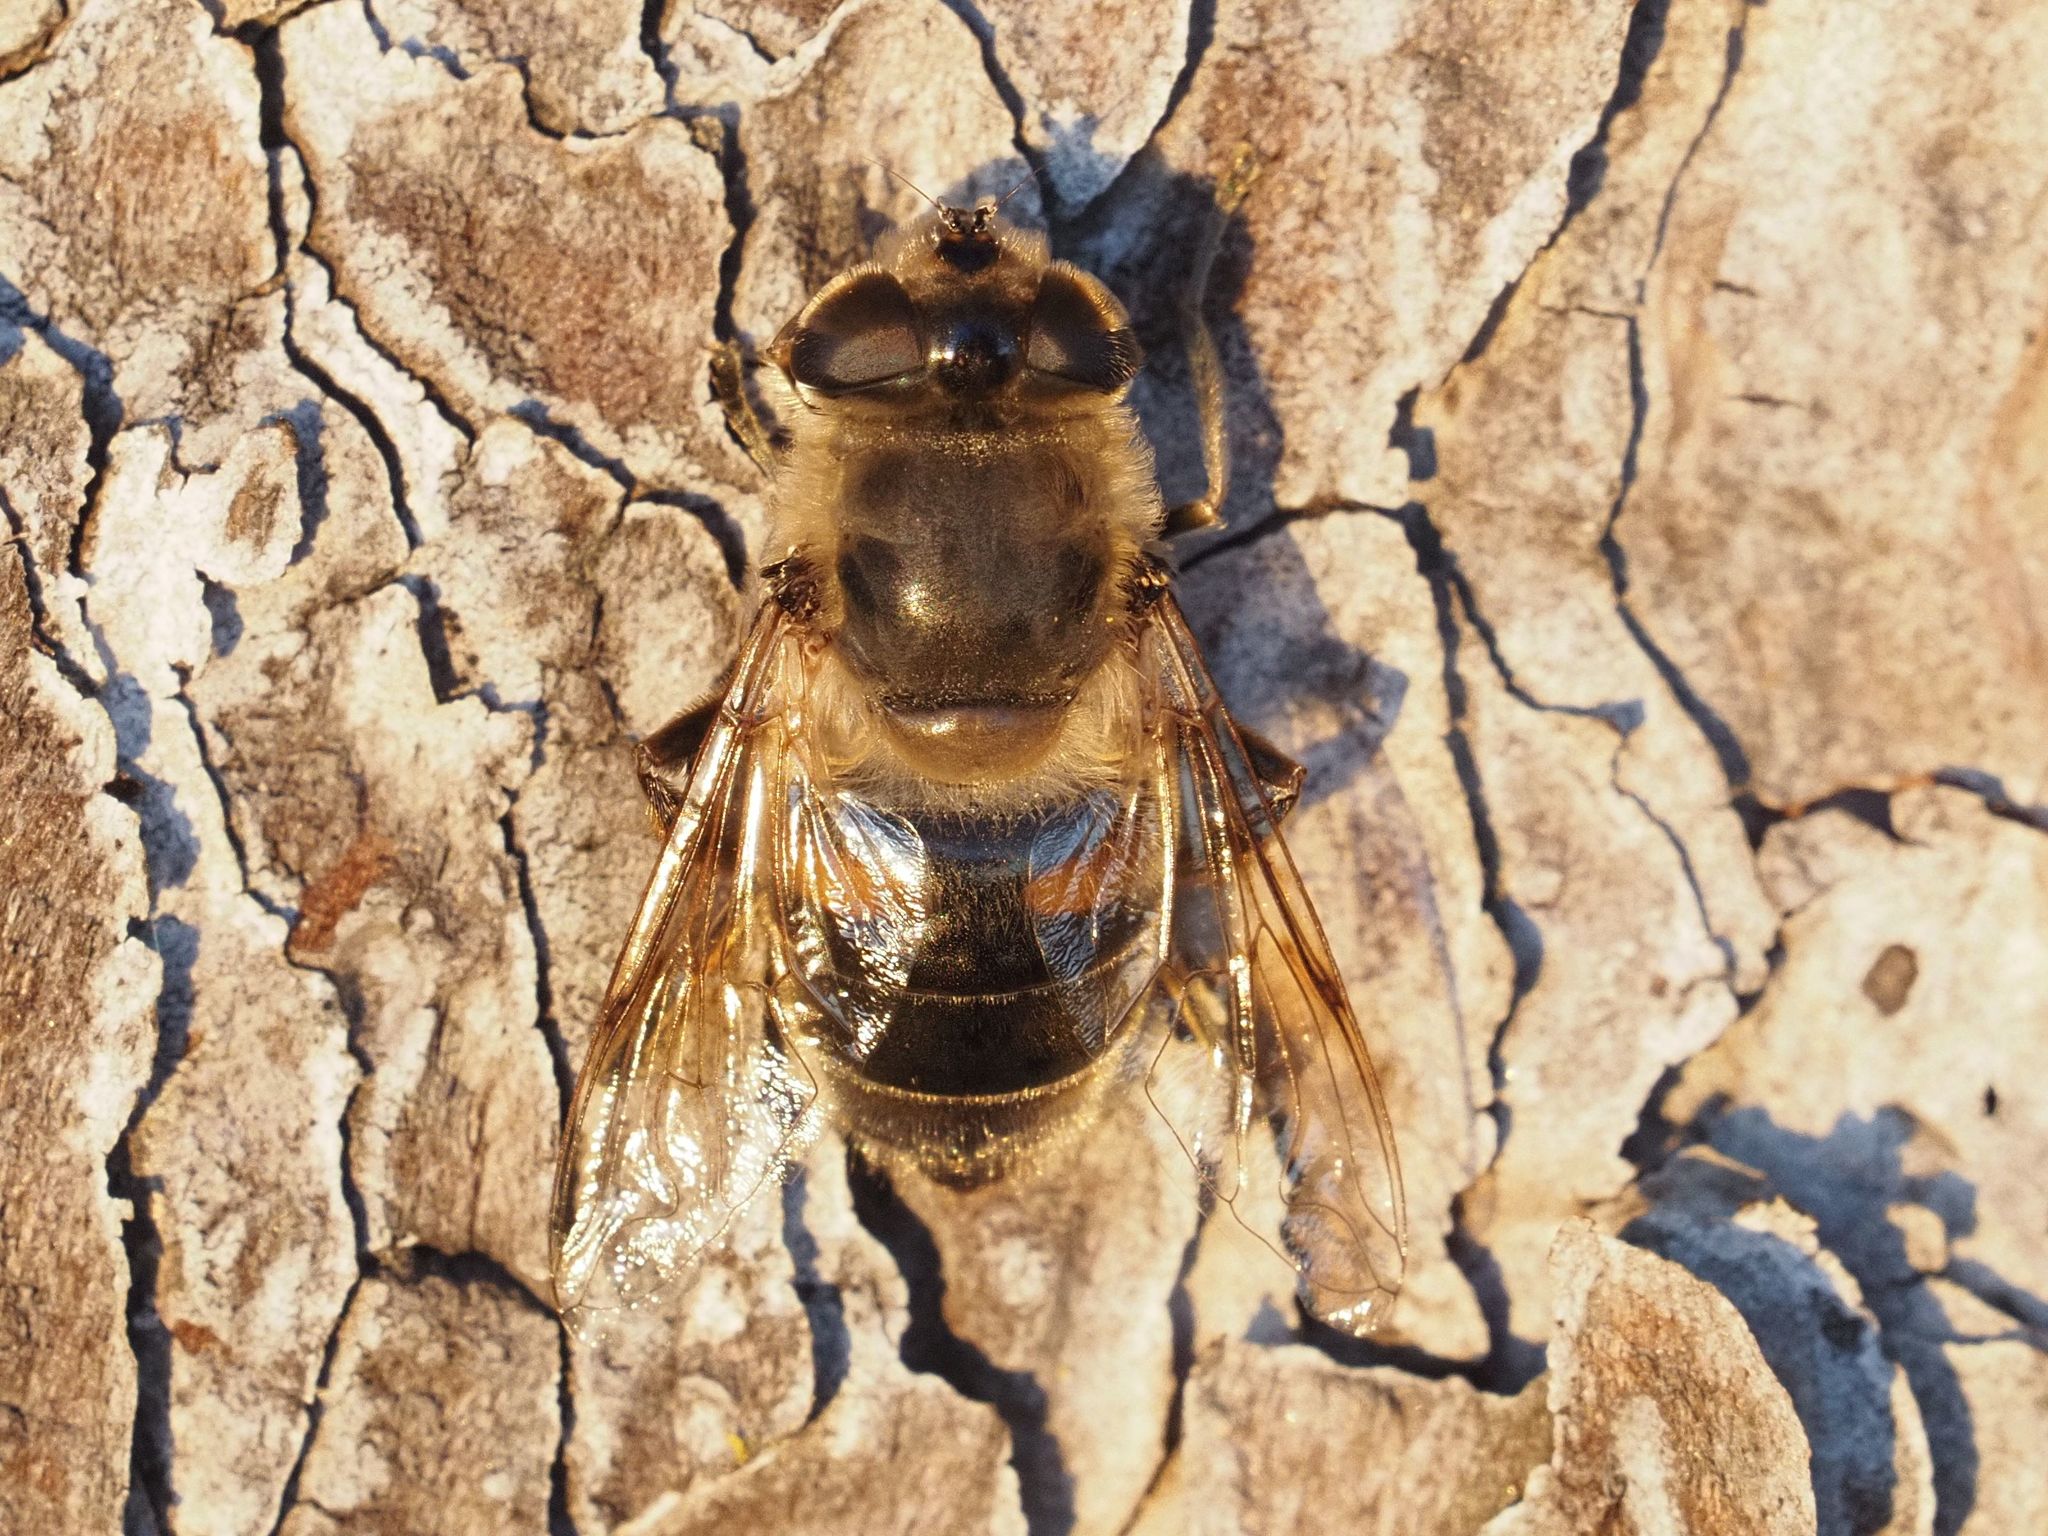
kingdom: Animalia
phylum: Arthropoda
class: Insecta
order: Diptera
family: Syrphidae
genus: Eristalis
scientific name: Eristalis tenax
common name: Drone fly
